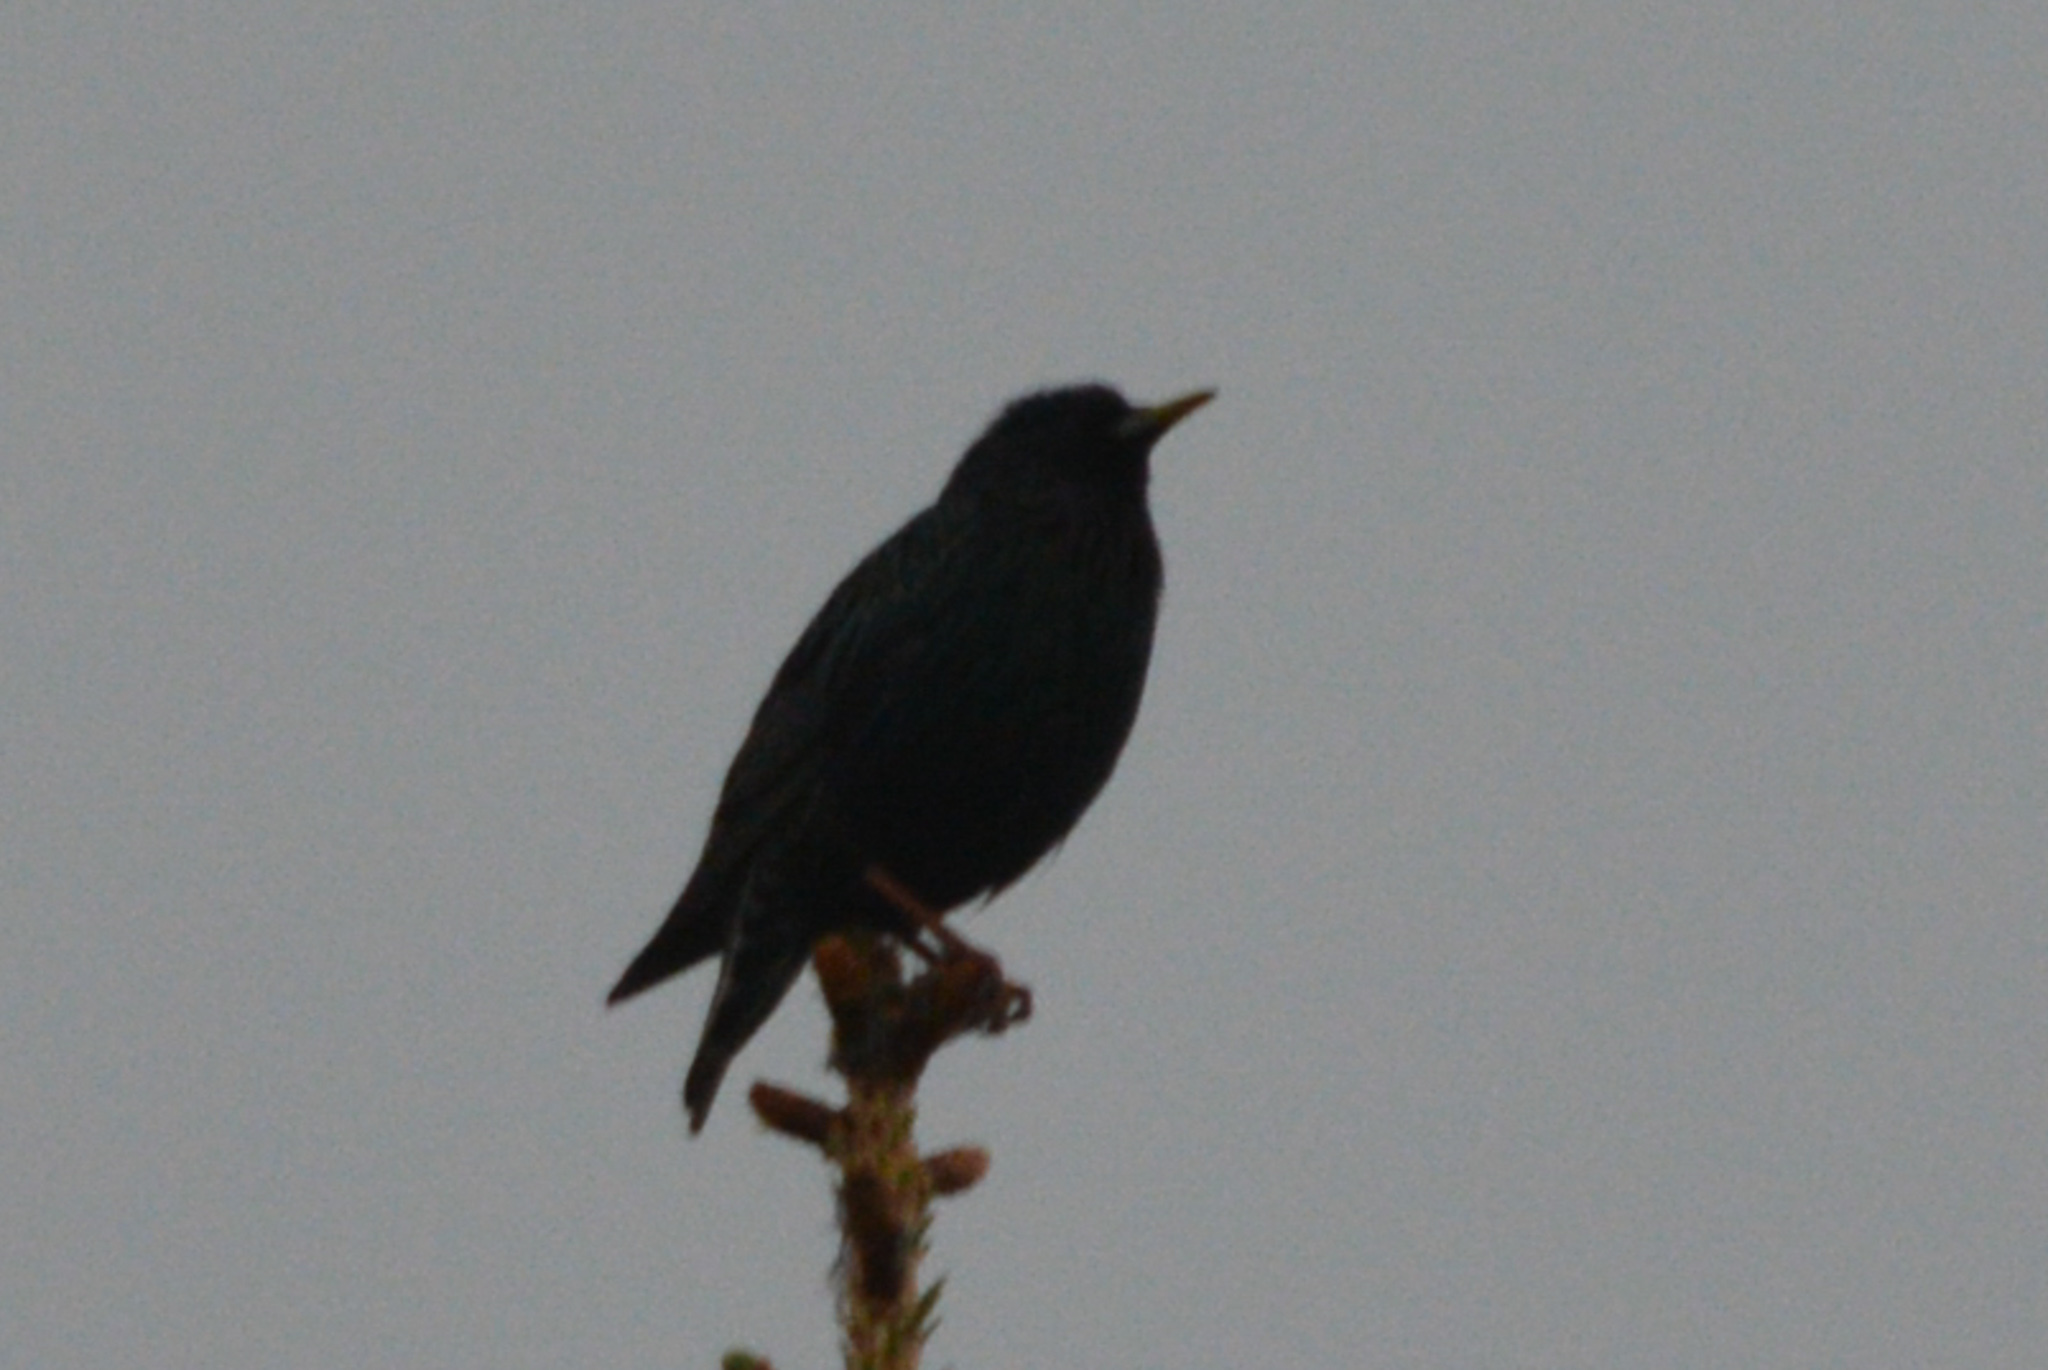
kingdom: Animalia
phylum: Chordata
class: Aves
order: Passeriformes
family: Sturnidae
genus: Sturnus
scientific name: Sturnus vulgaris
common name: Common starling
